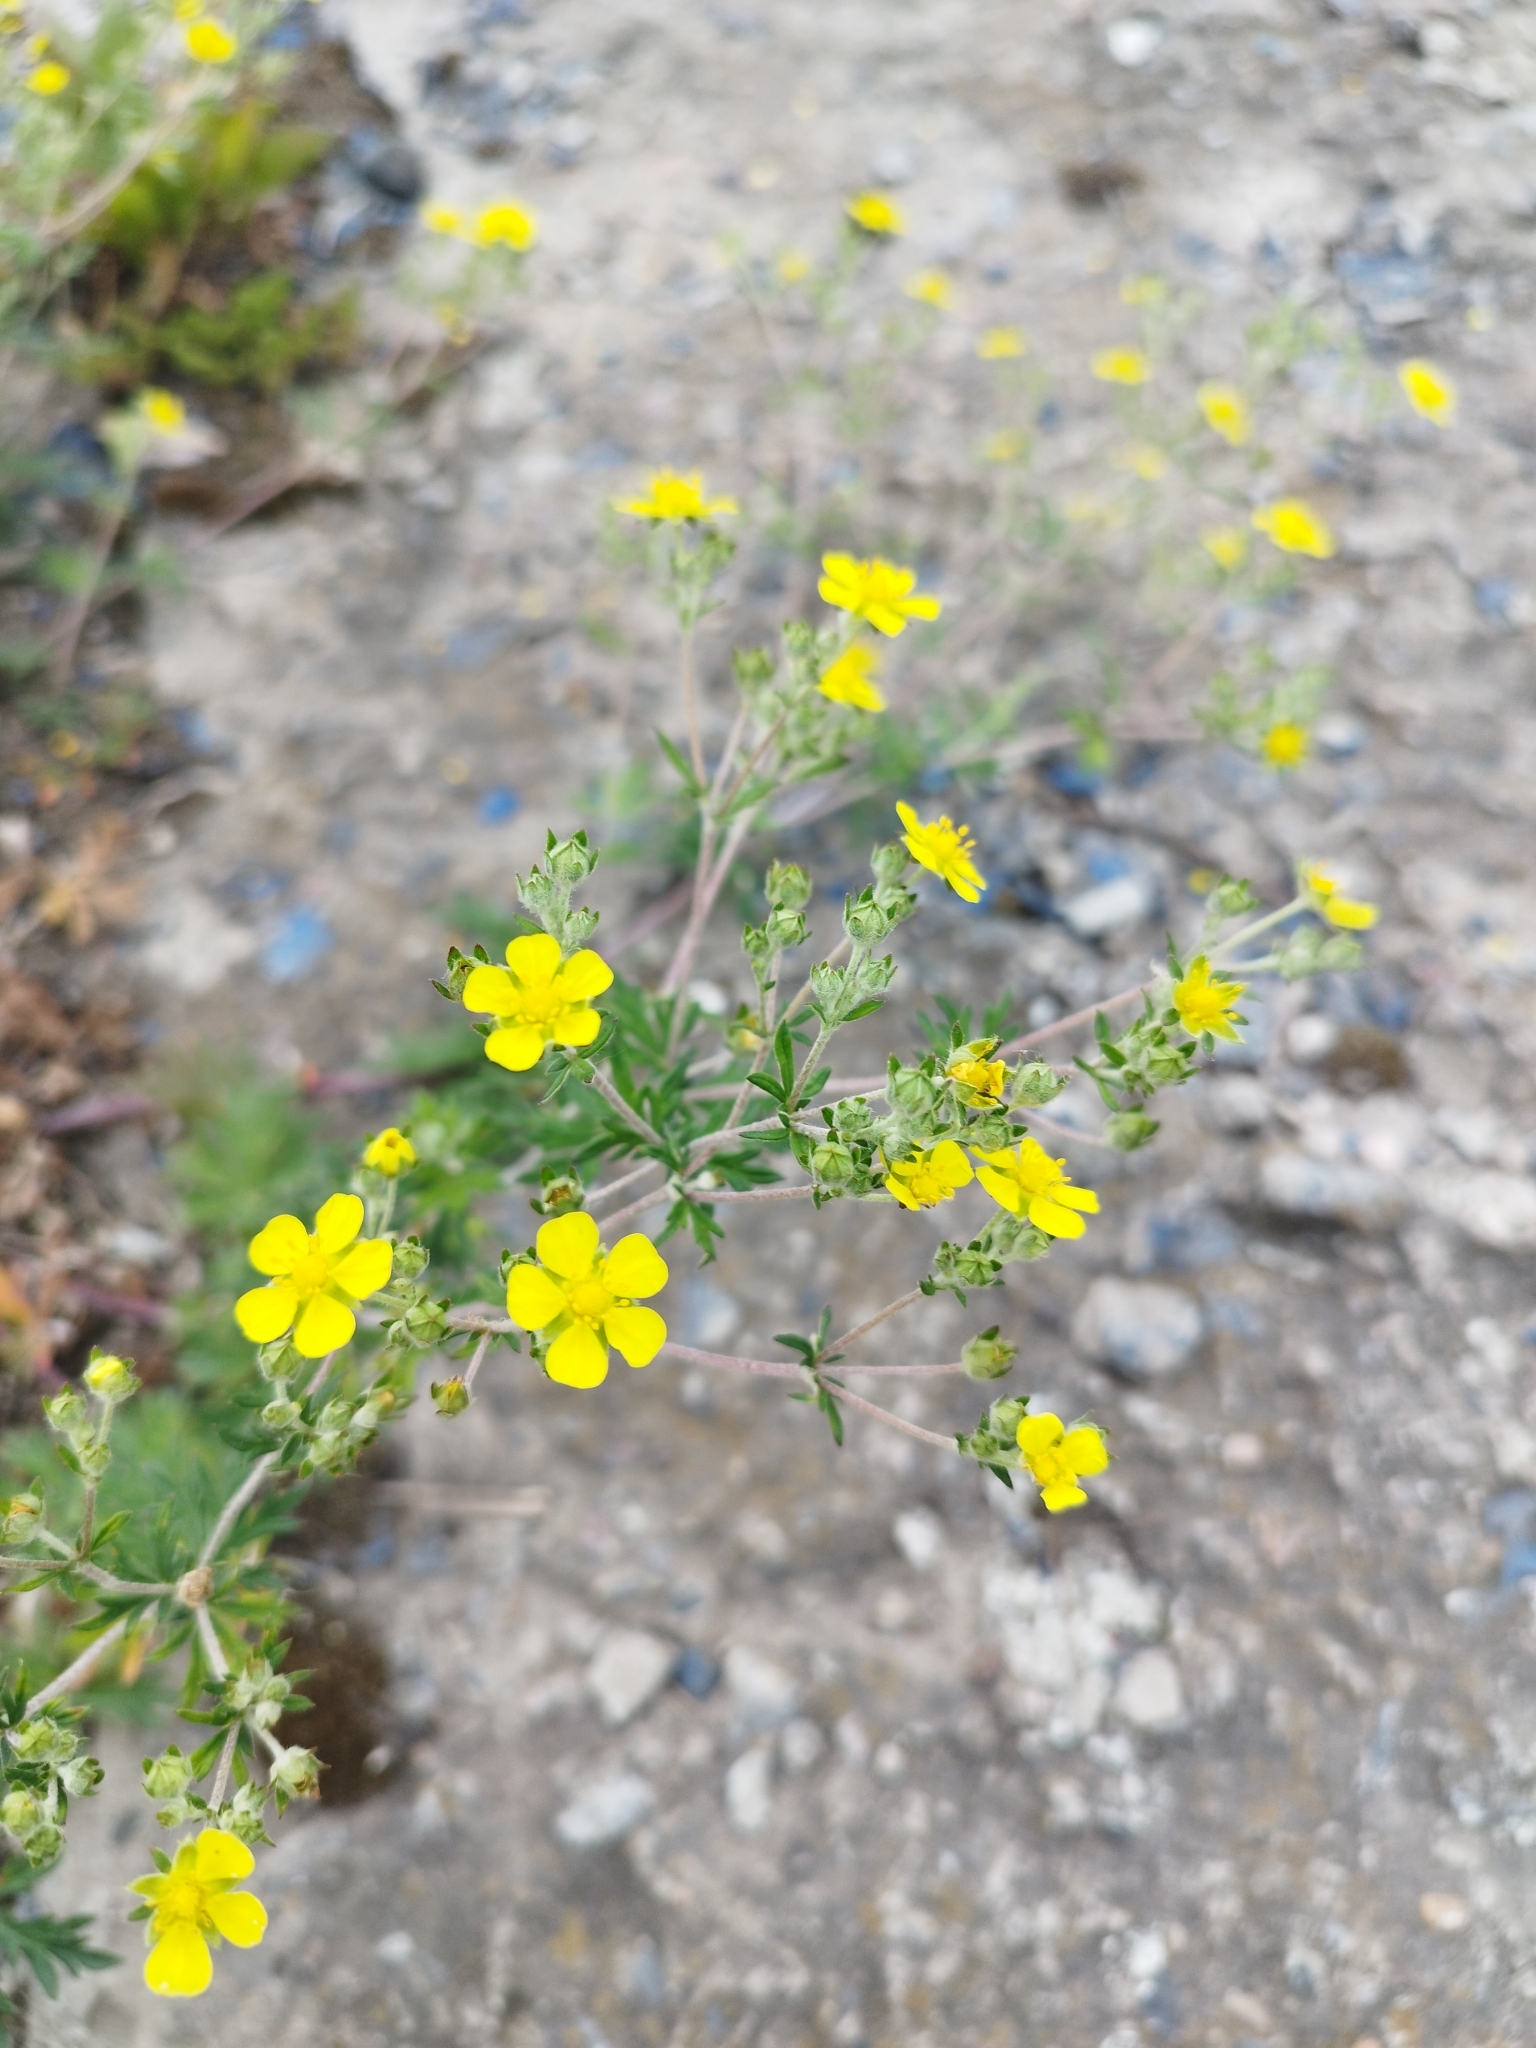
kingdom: Plantae
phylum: Tracheophyta
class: Magnoliopsida
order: Rosales
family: Rosaceae
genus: Potentilla
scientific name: Potentilla argentea
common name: Hoary cinquefoil
